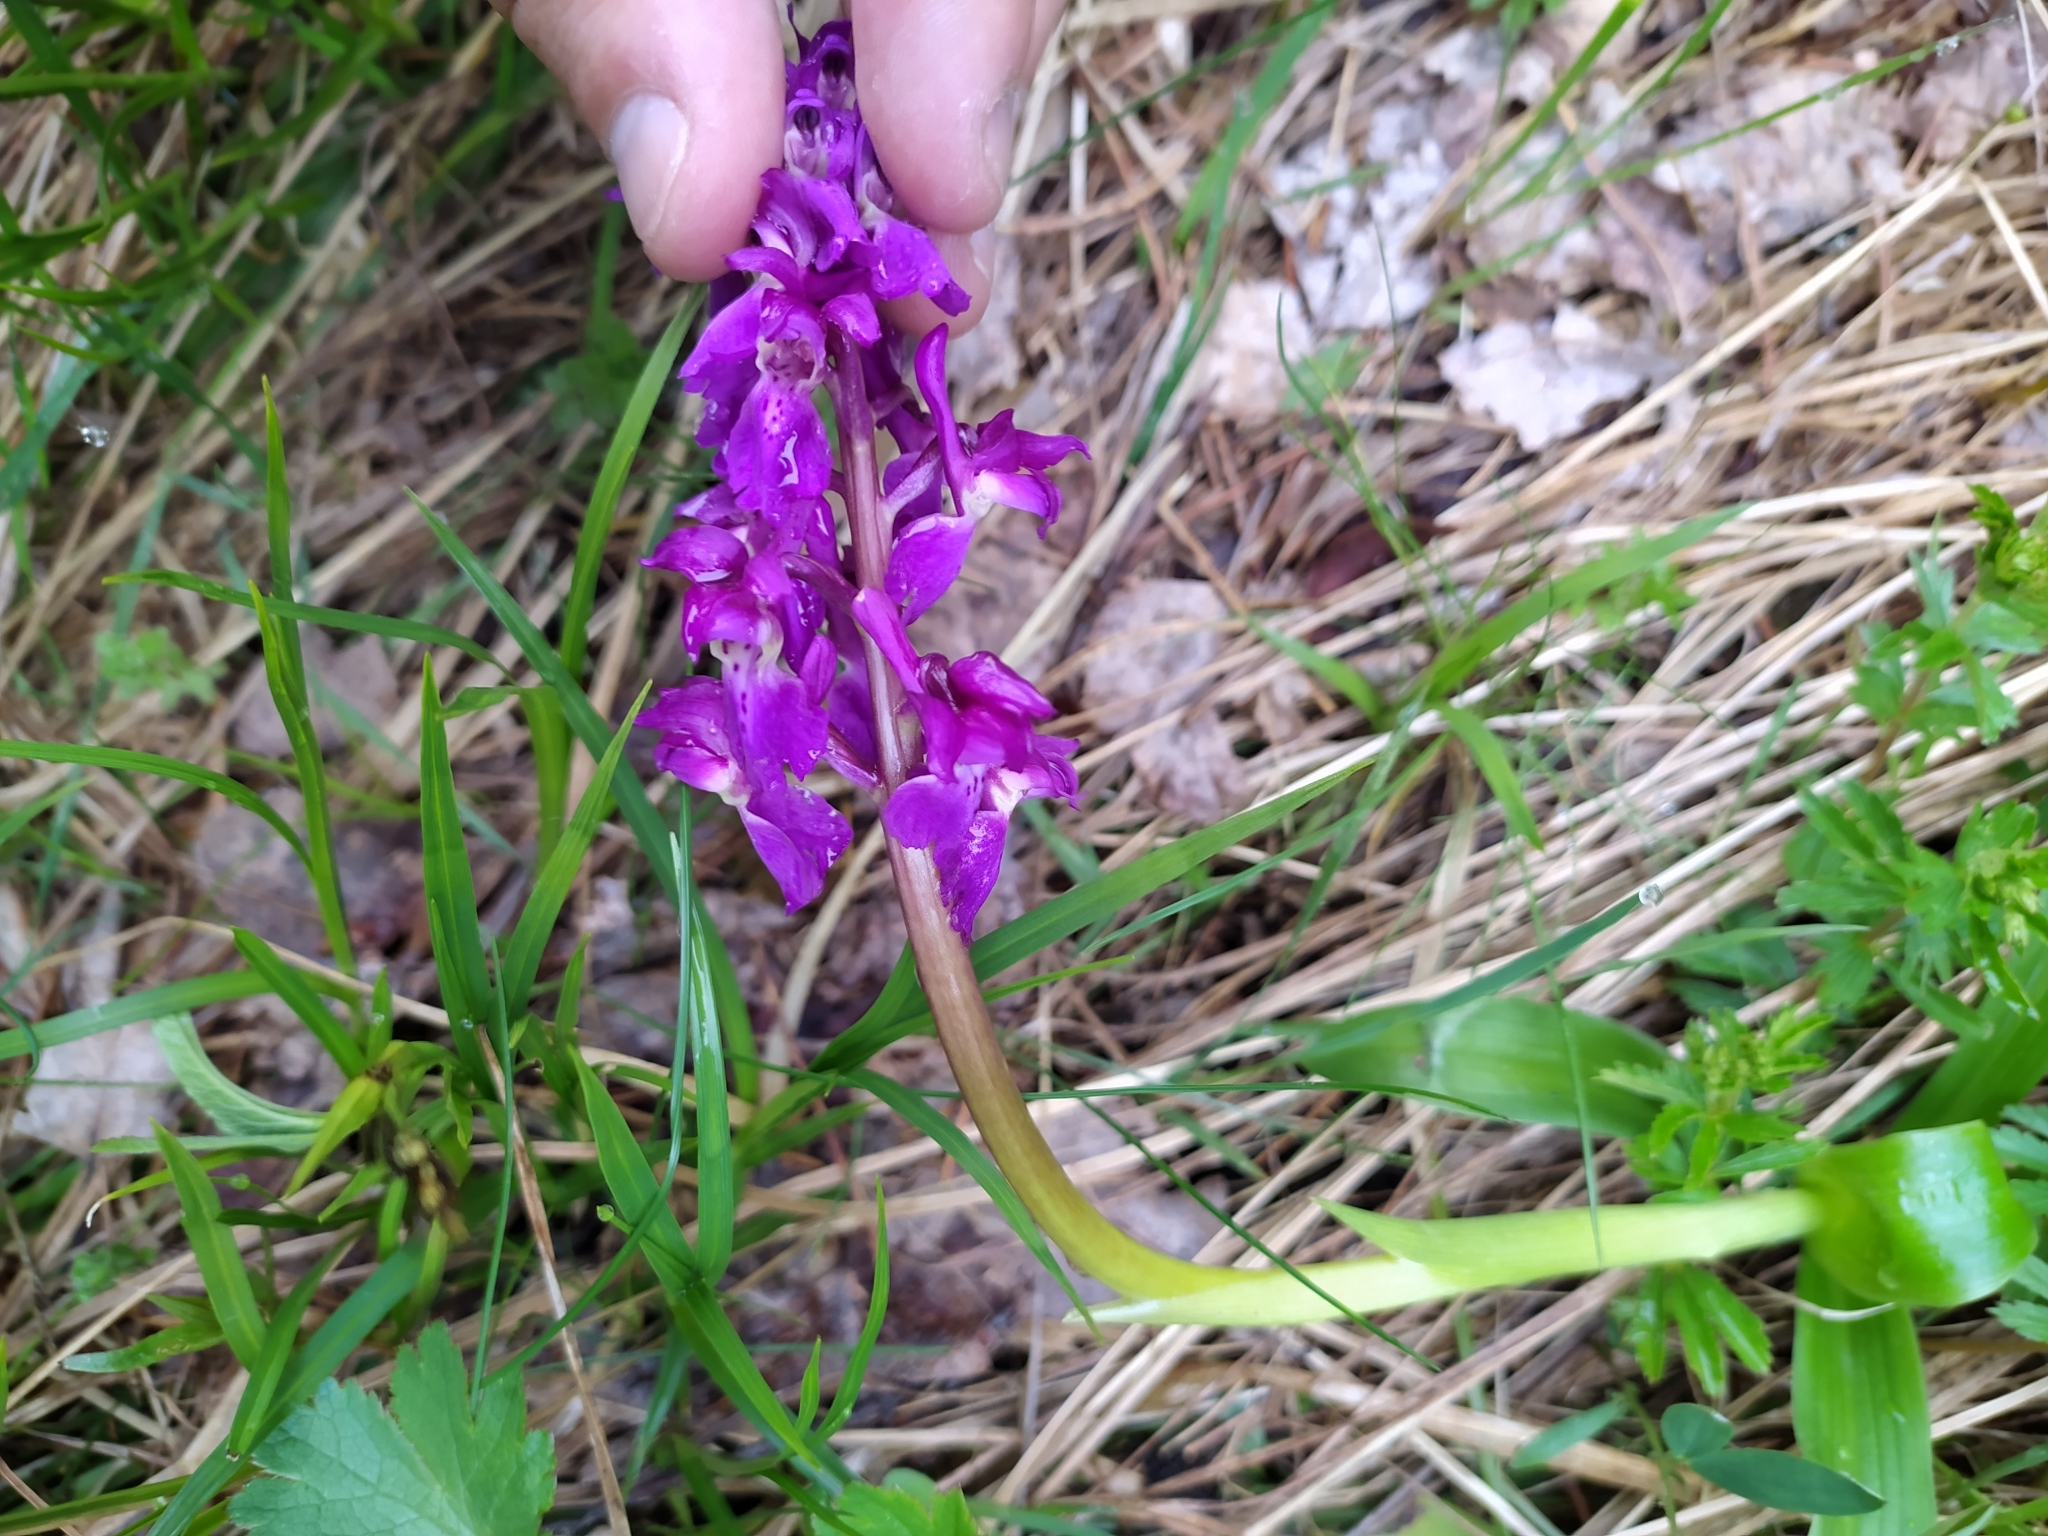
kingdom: Plantae
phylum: Tracheophyta
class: Liliopsida
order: Asparagales
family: Orchidaceae
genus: Orchis
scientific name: Orchis mascula
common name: Early-purple orchid
